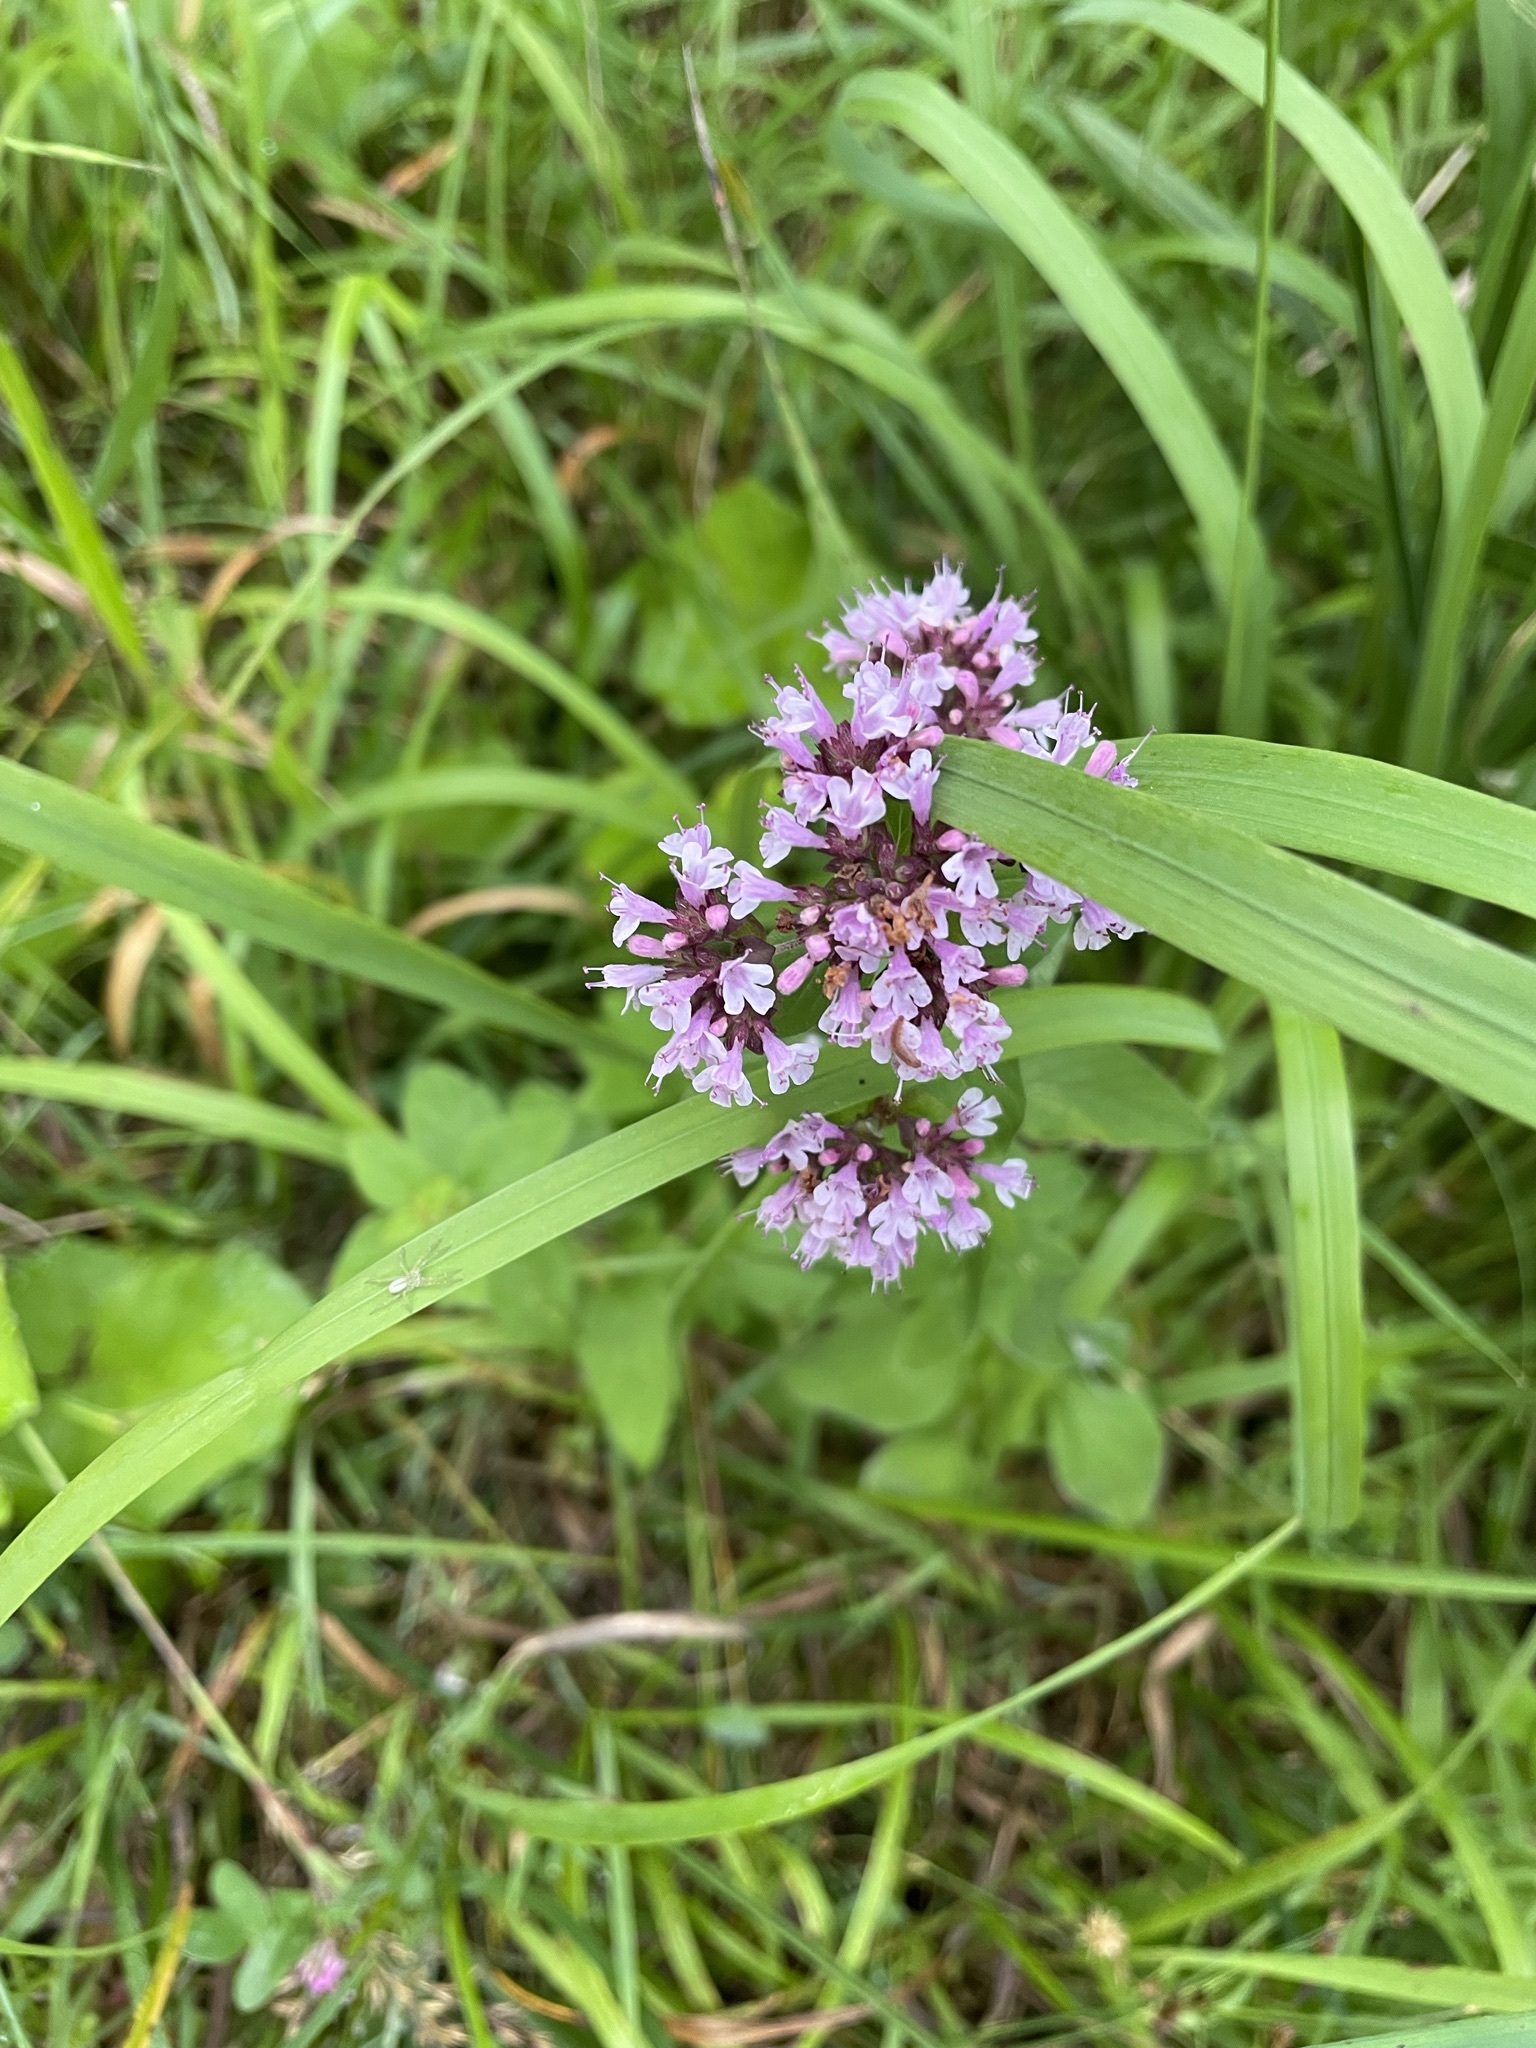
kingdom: Plantae
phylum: Tracheophyta
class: Magnoliopsida
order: Lamiales
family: Lamiaceae
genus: Origanum
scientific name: Origanum vulgare
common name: Wild marjoram
